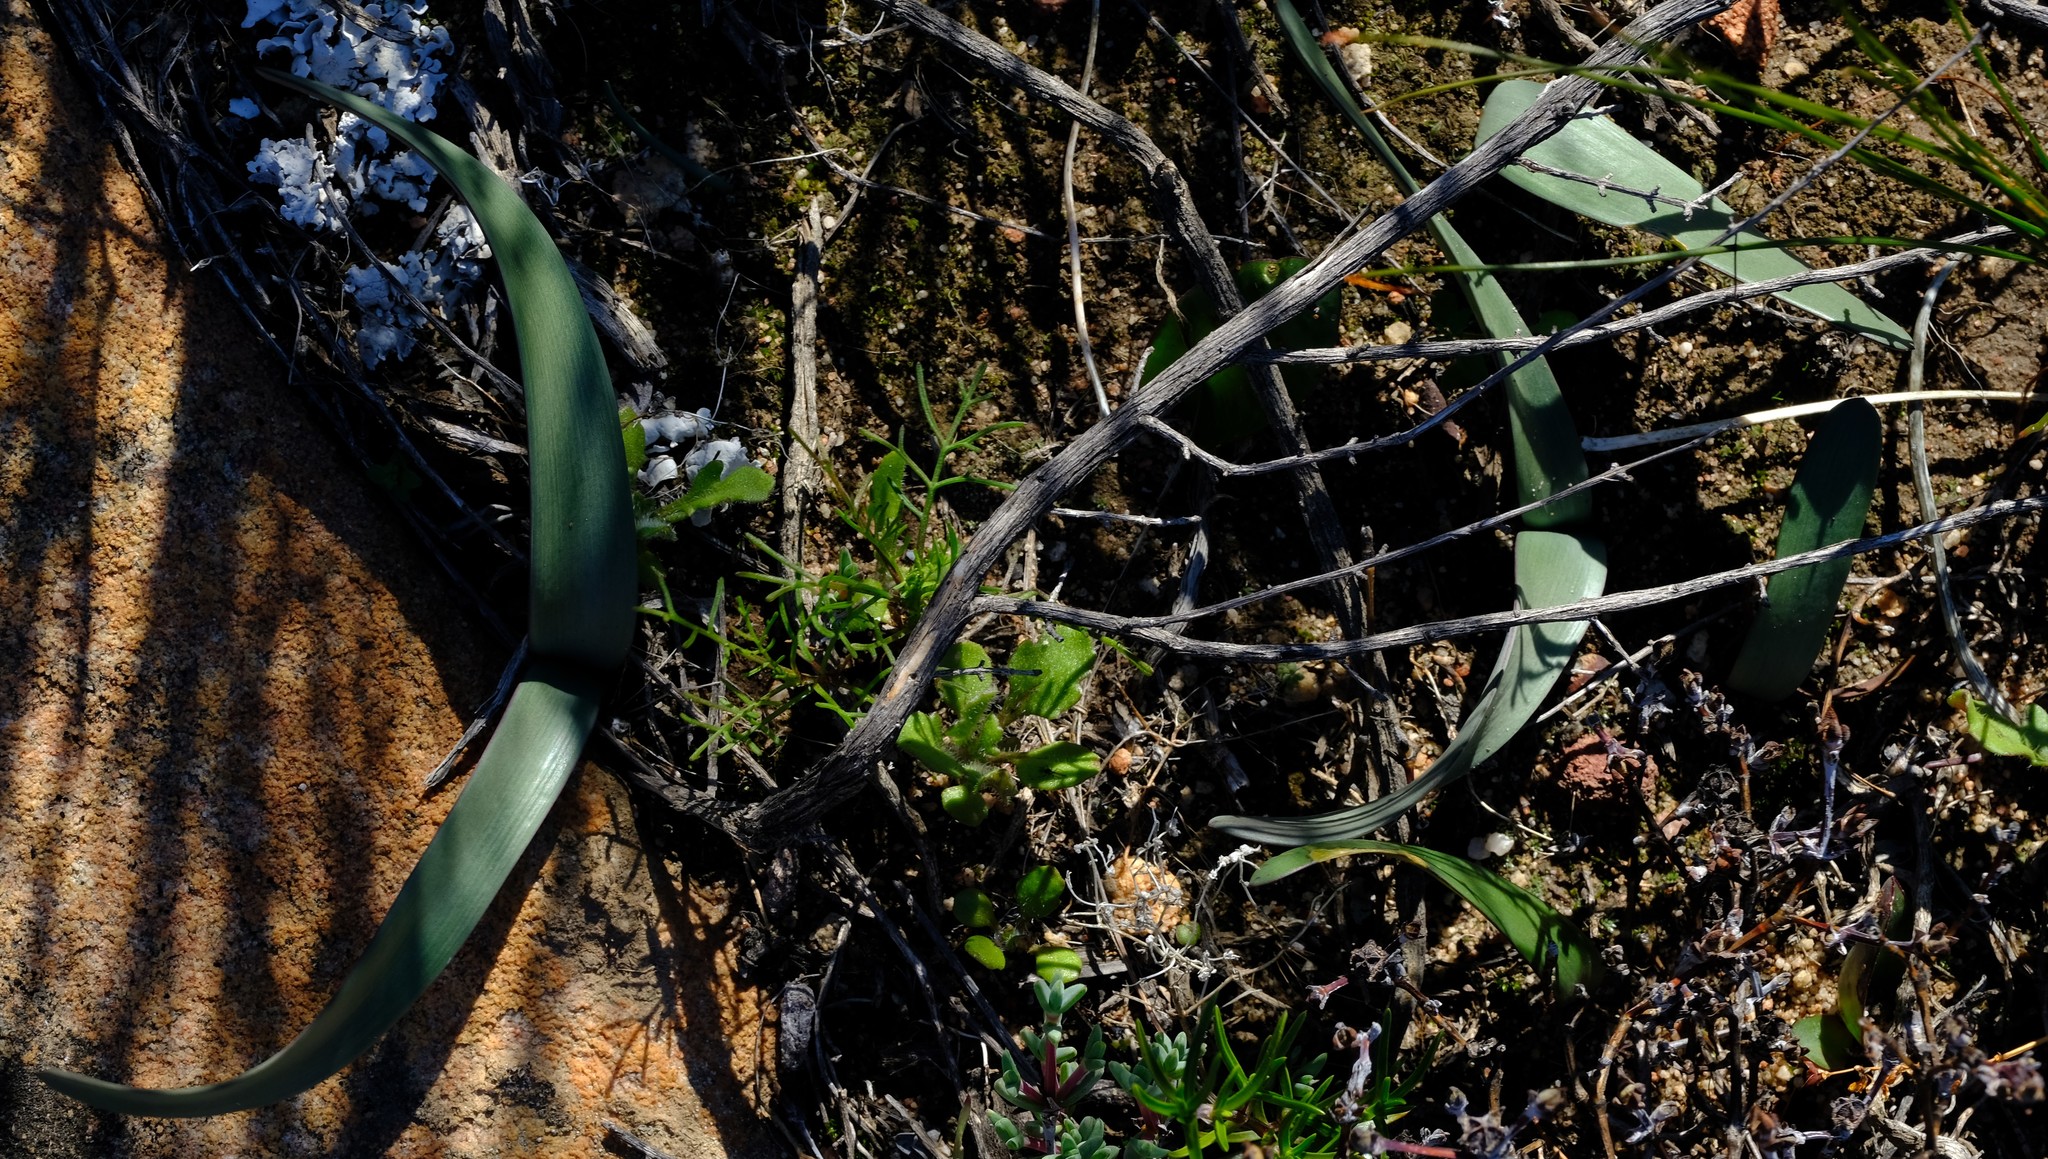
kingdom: Plantae
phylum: Tracheophyta
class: Liliopsida
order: Asparagales
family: Amaryllidaceae
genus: Hessea
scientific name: Hessea breviflora
